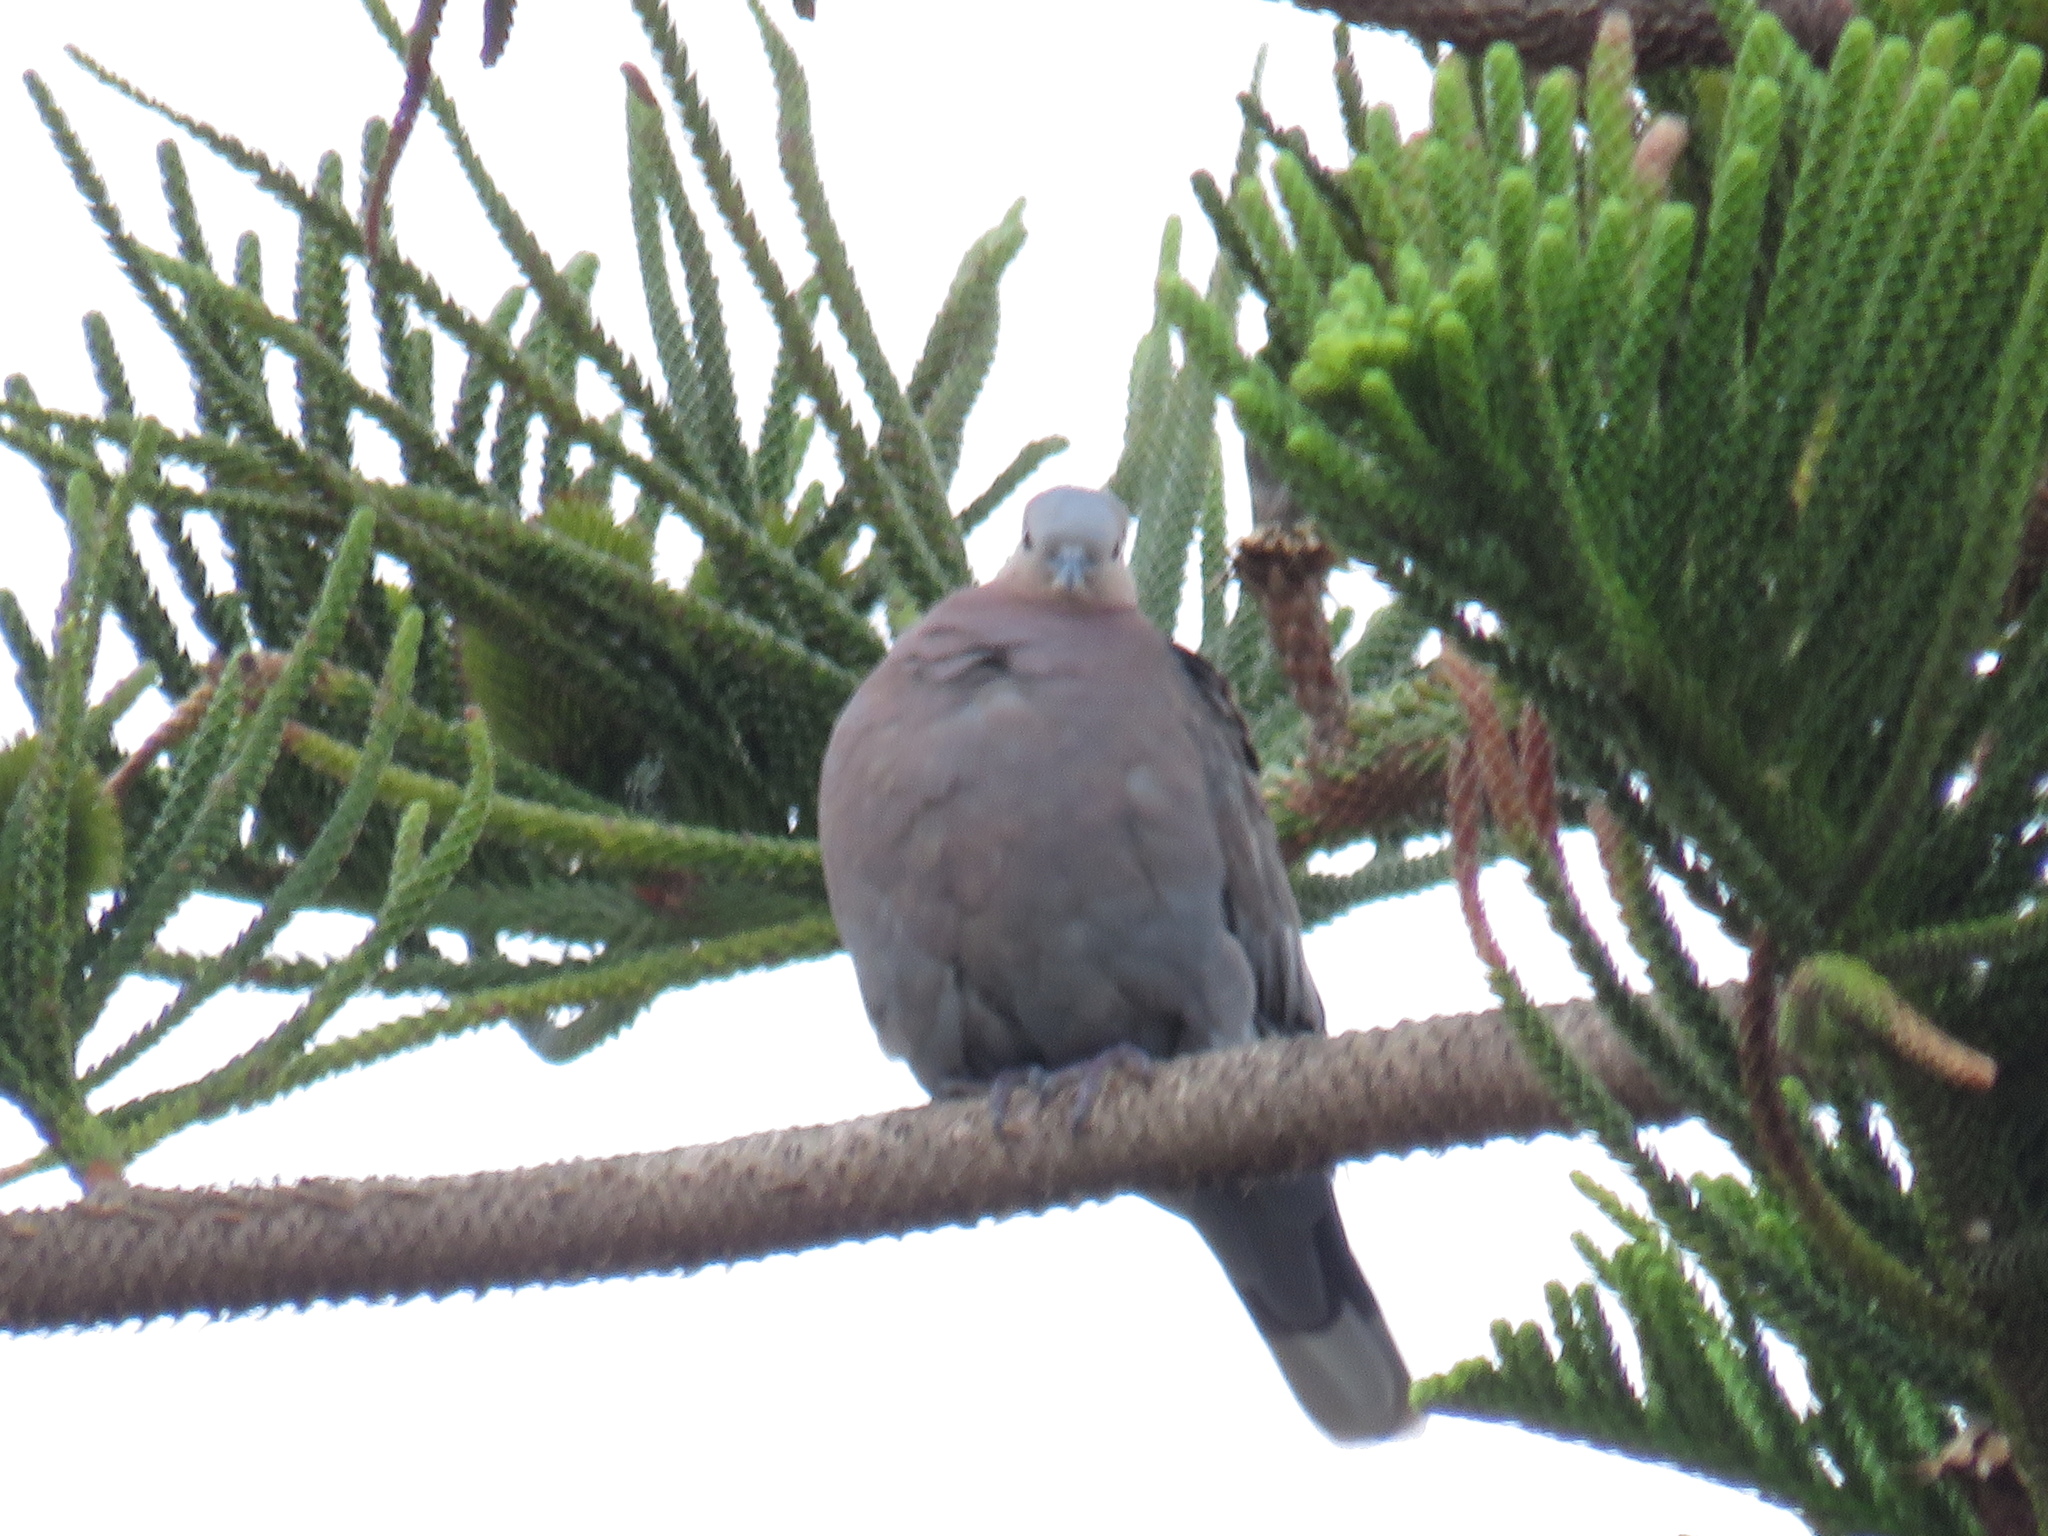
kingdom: Animalia
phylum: Chordata
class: Aves
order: Columbiformes
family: Columbidae
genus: Streptopelia
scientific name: Streptopelia semitorquata
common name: Red-eyed dove
